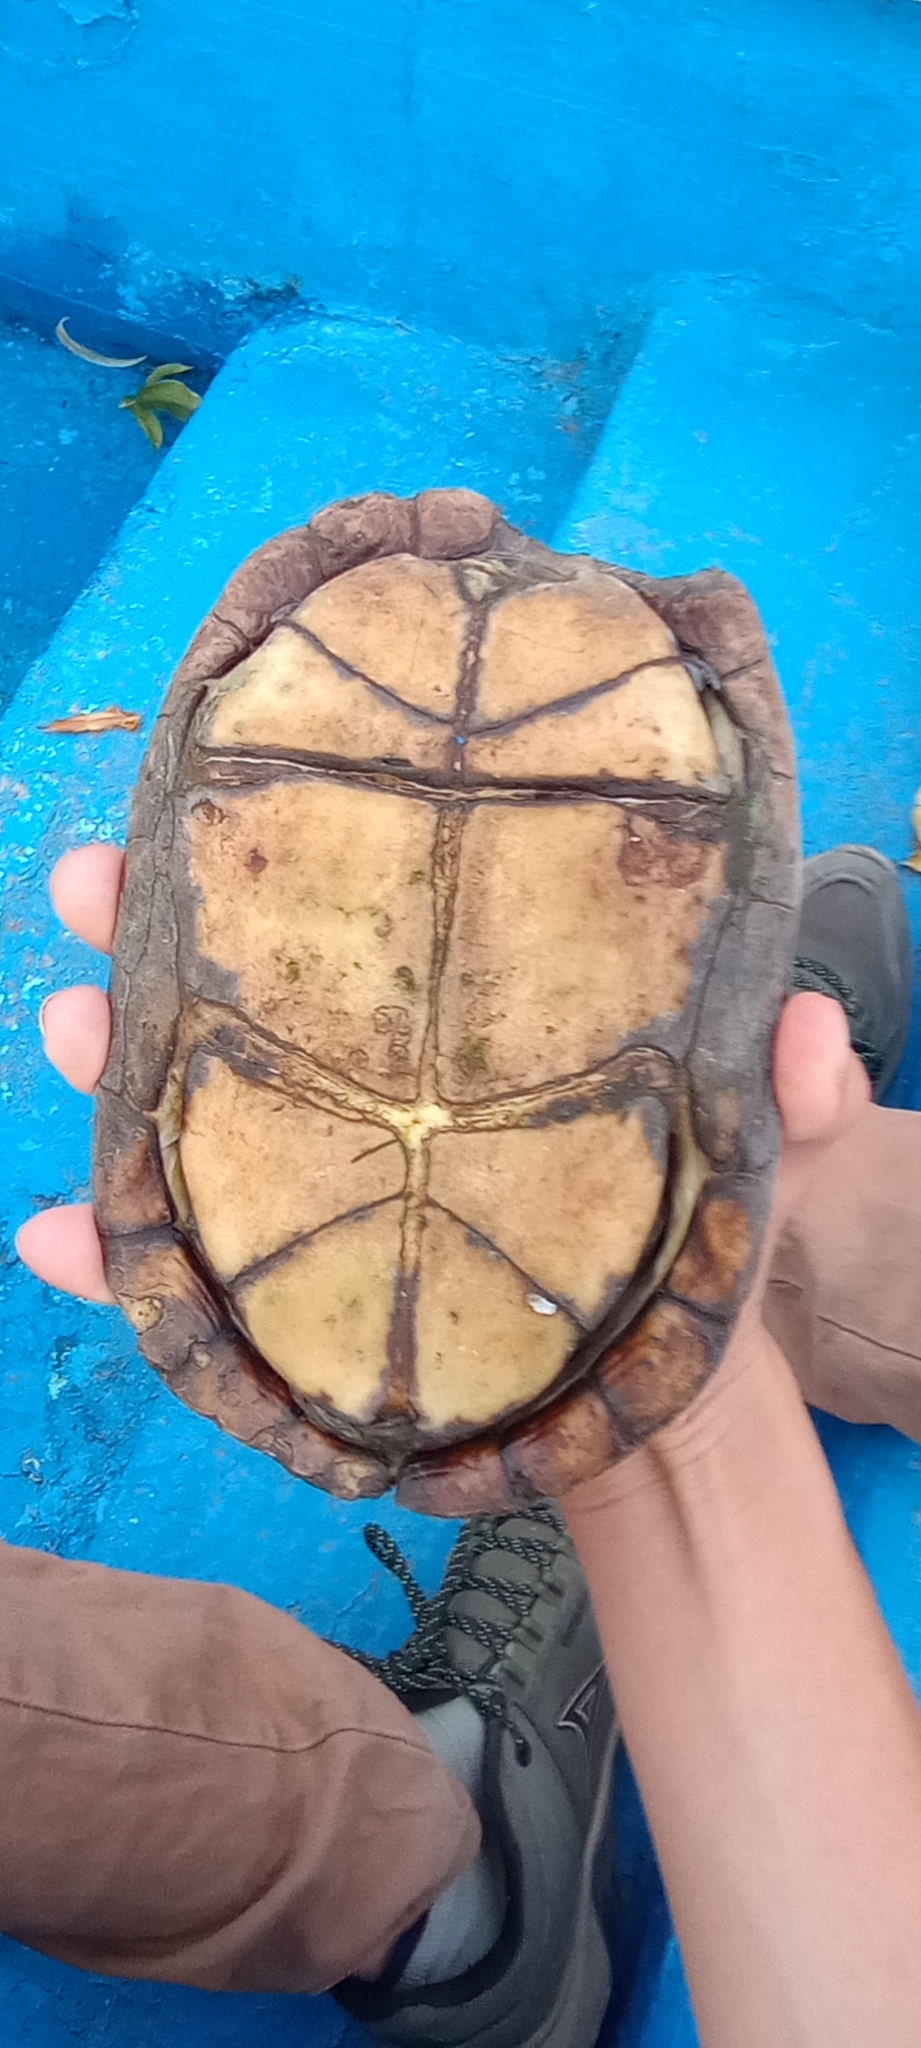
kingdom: Animalia
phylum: Chordata
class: Testudines
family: Kinosternidae
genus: Kinosternon
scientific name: Kinosternon integrum
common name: Mexican mud turtle
